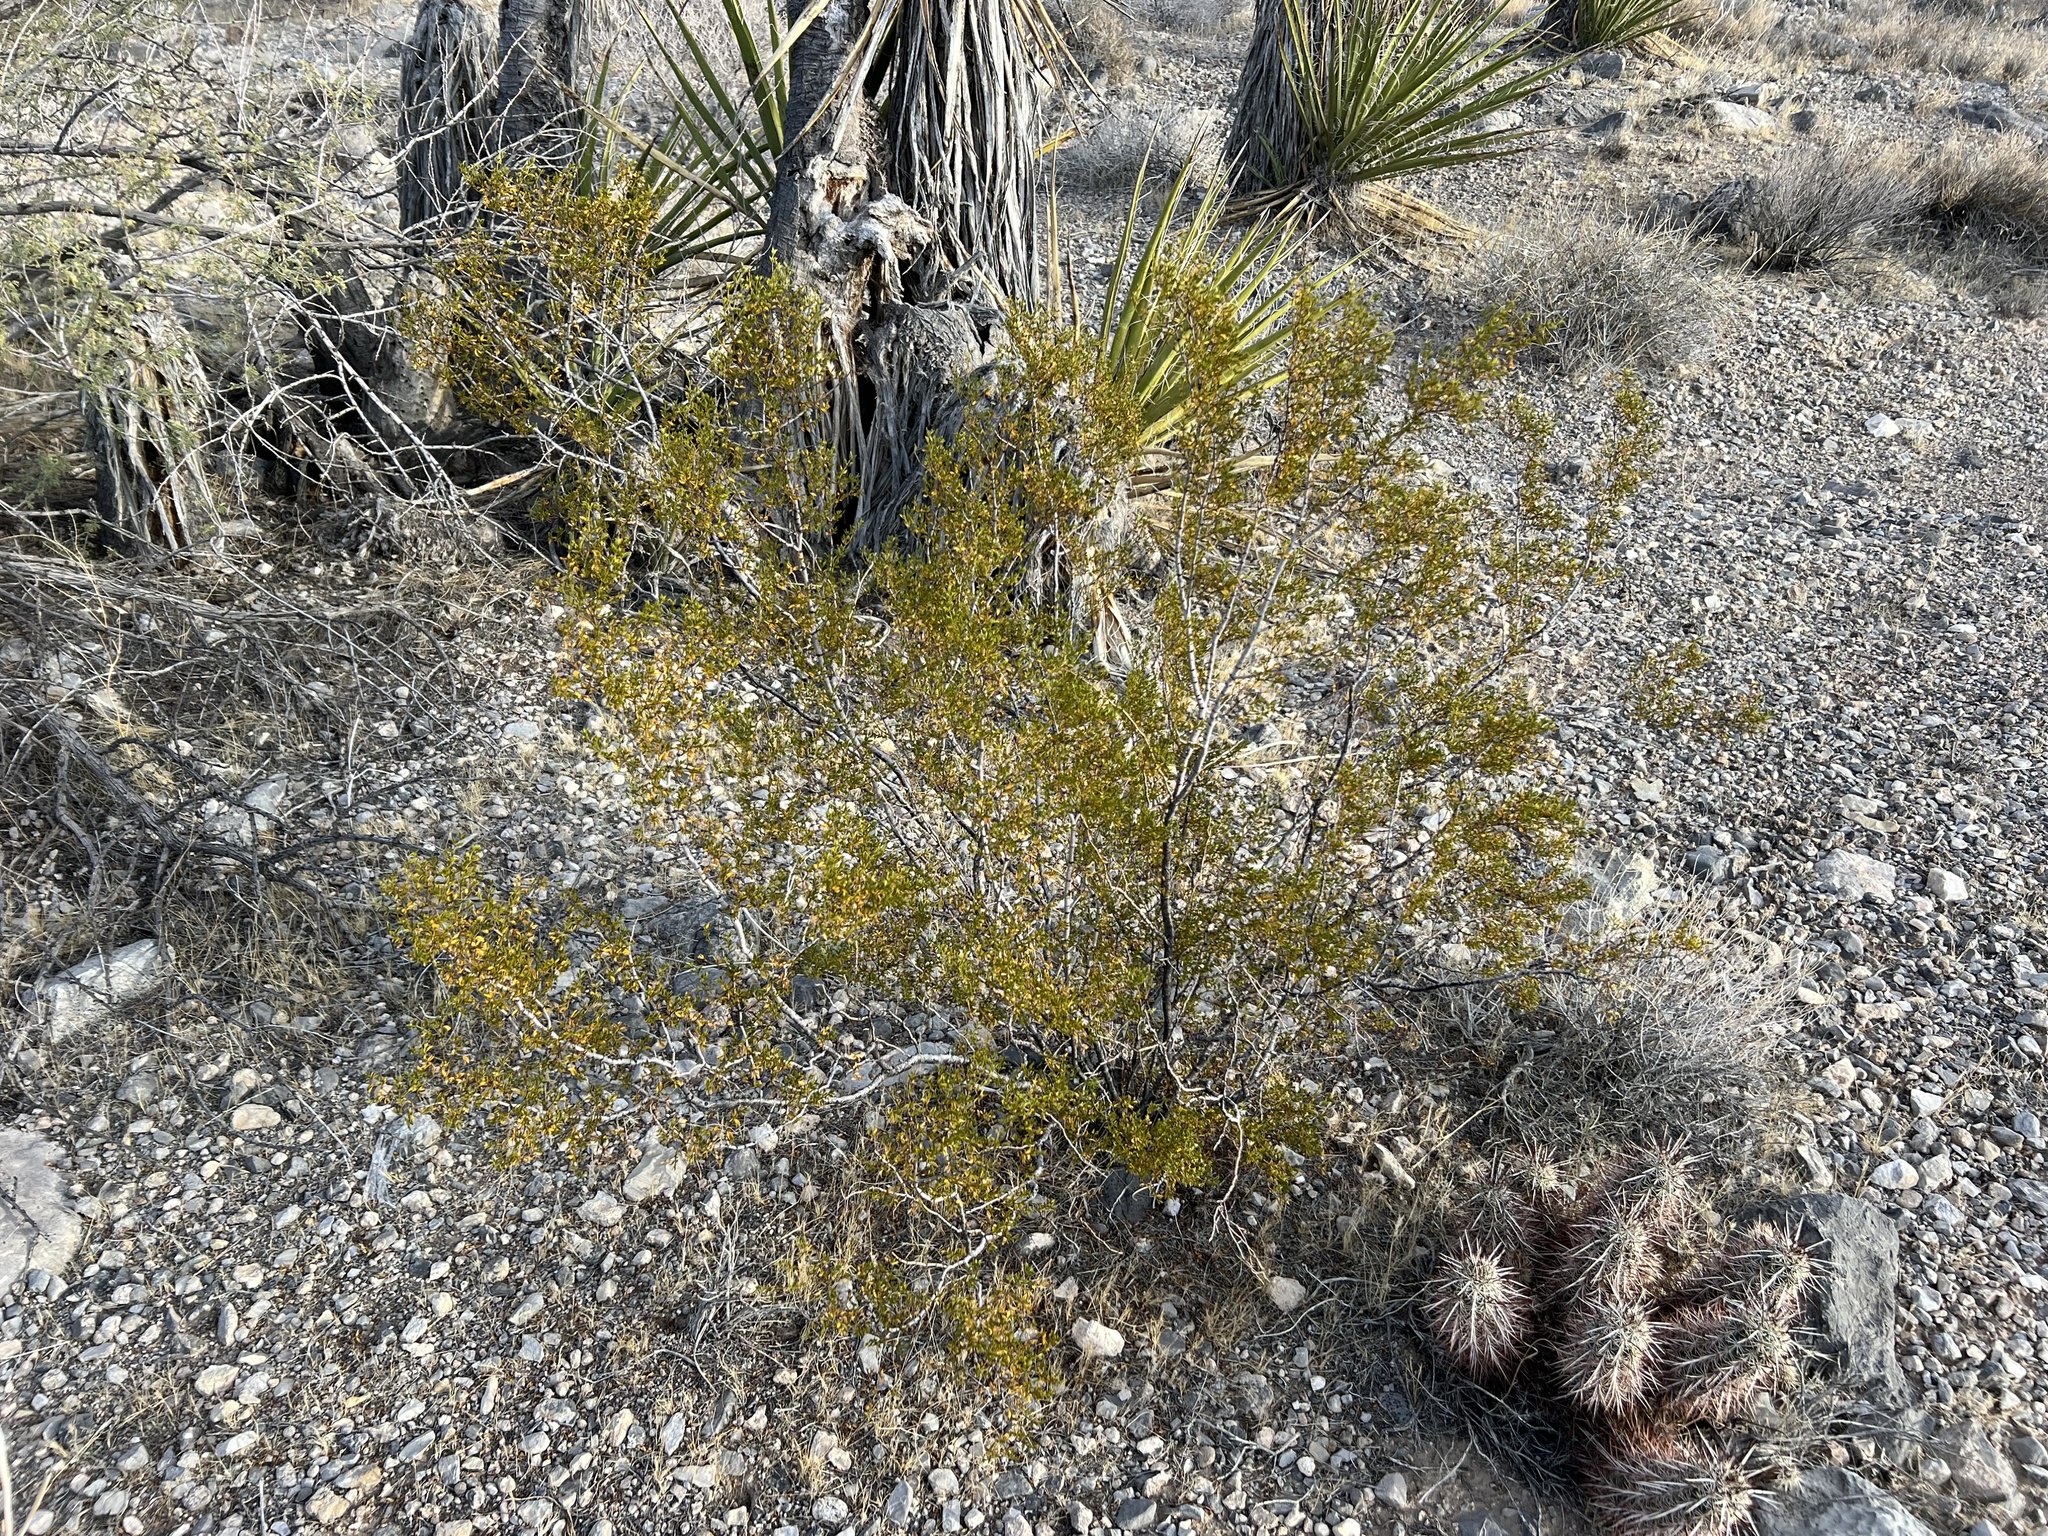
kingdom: Plantae
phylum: Tracheophyta
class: Magnoliopsida
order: Zygophyllales
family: Zygophyllaceae
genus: Larrea
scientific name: Larrea tridentata
